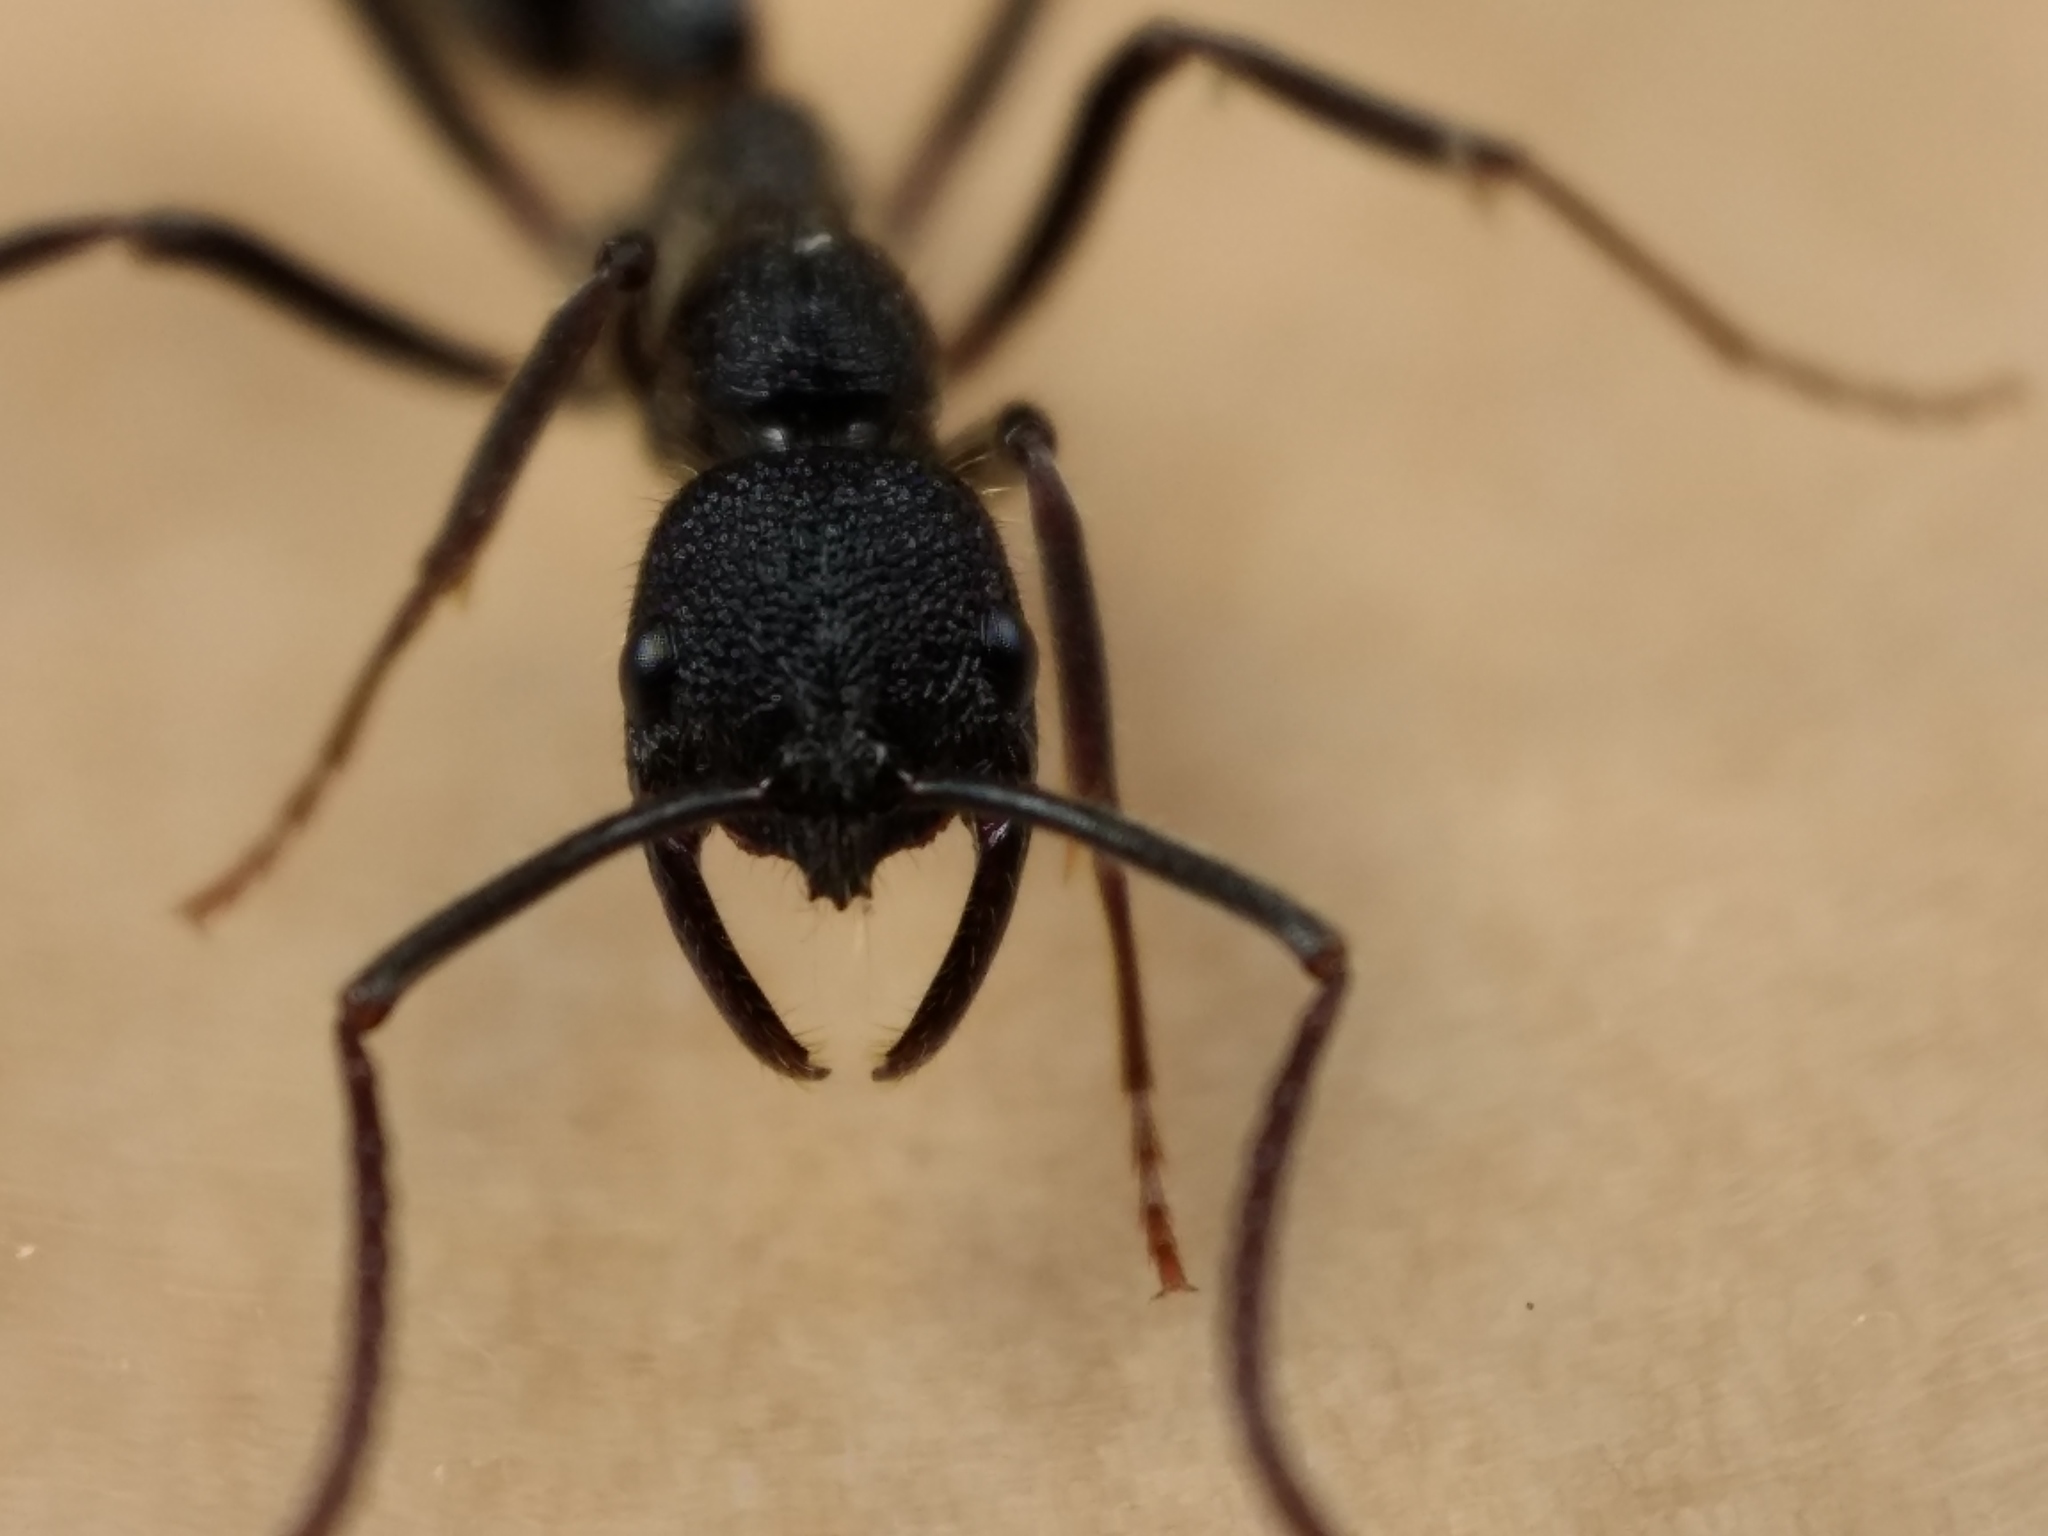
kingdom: Animalia
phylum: Arthropoda
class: Insecta
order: Hymenoptera
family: Formicidae
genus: Leptogenys
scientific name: Leptogenys sjostedti
